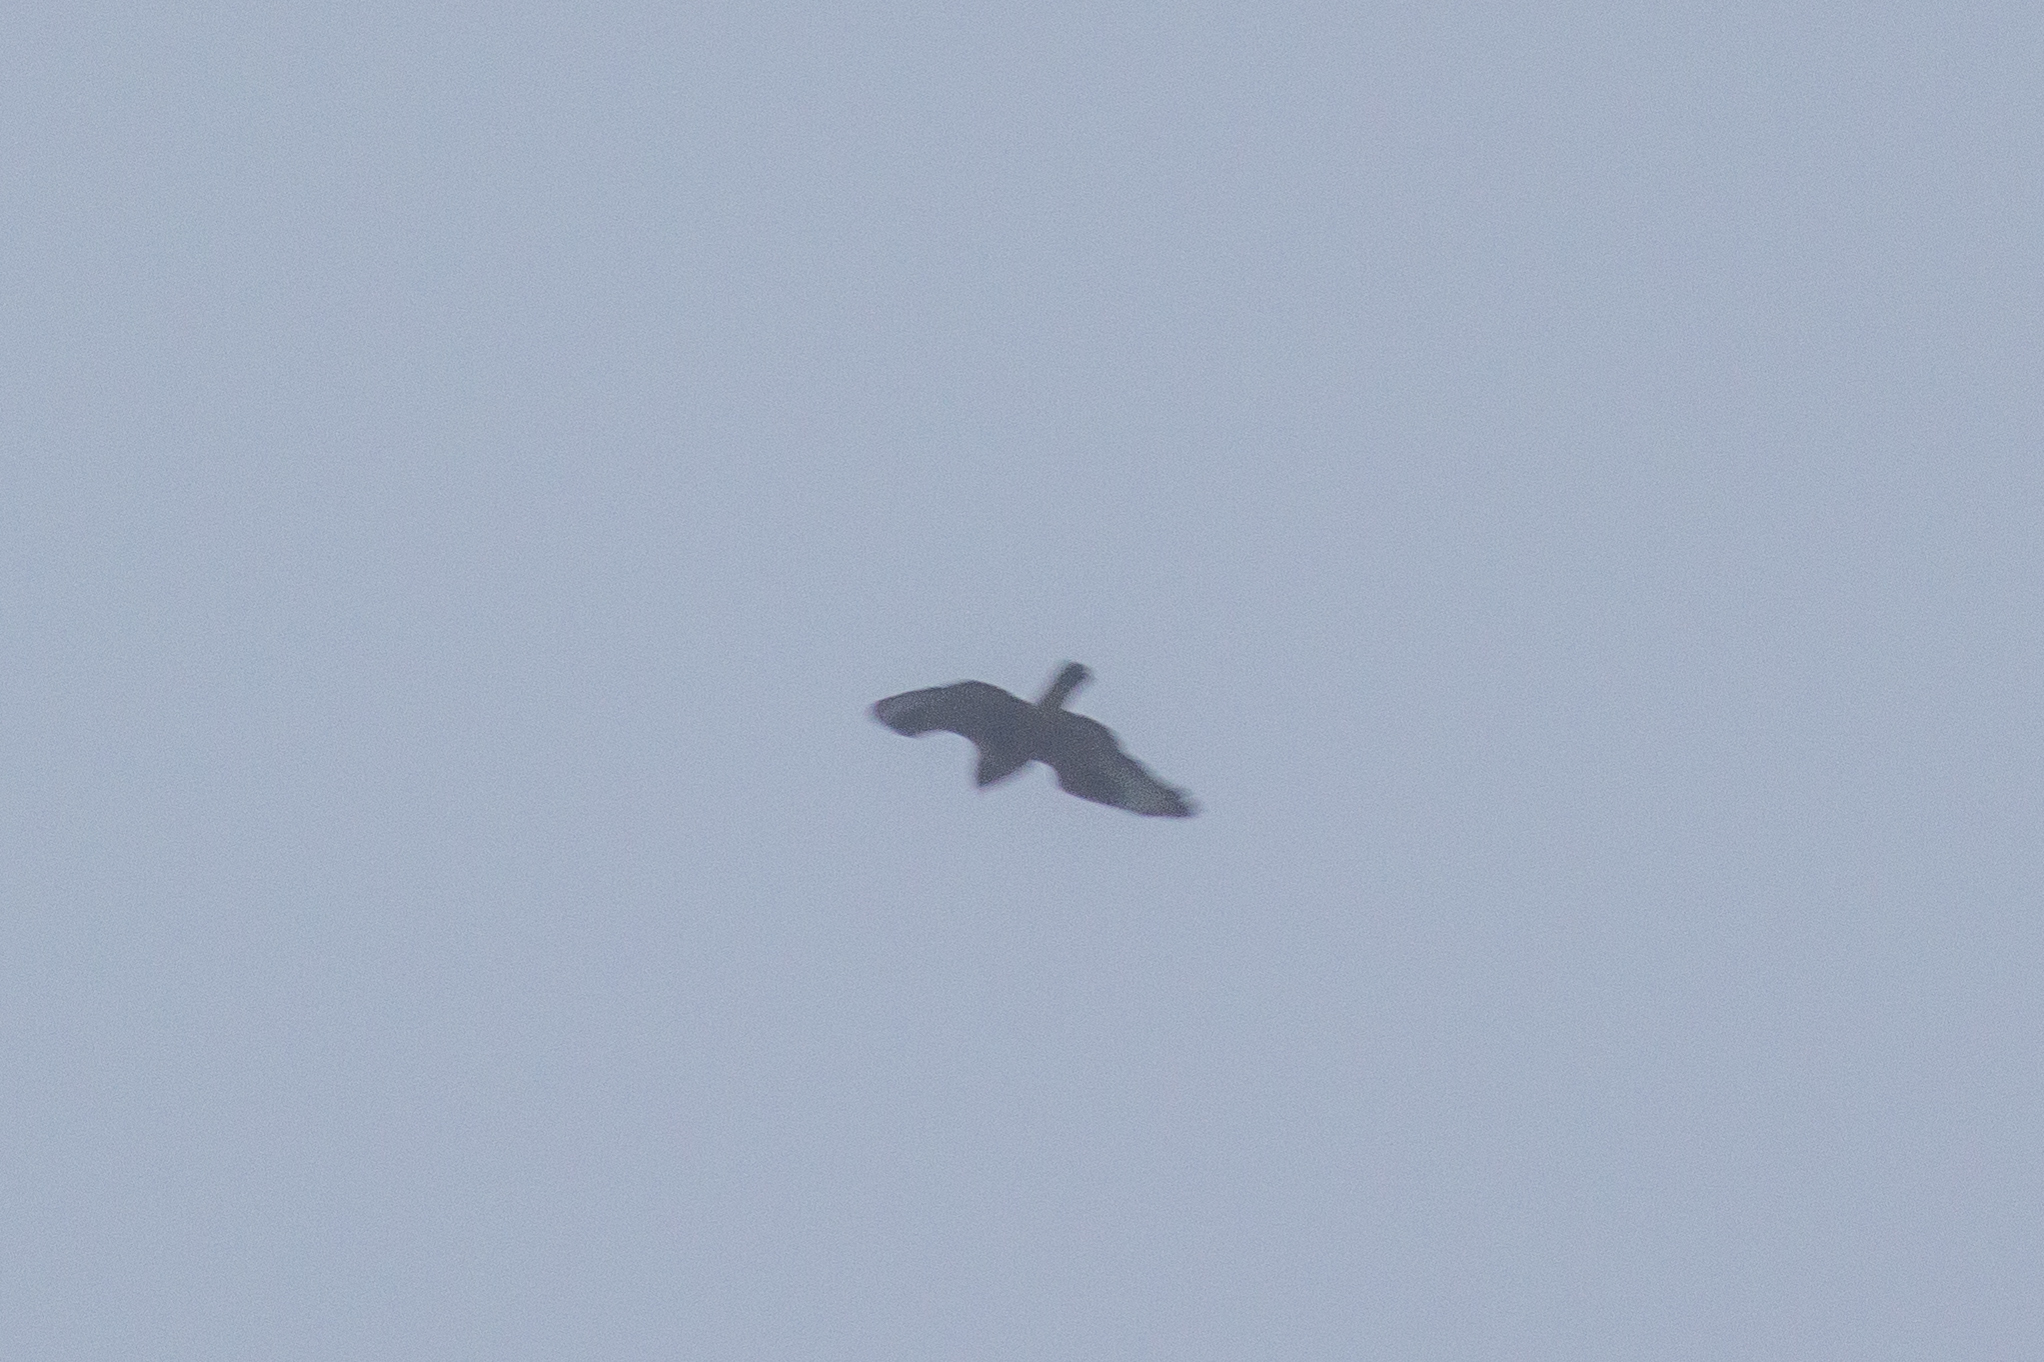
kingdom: Animalia
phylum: Chordata
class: Aves
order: Accipitriformes
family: Accipitridae
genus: Buteo
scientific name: Buteo buteo
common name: Common buzzard
